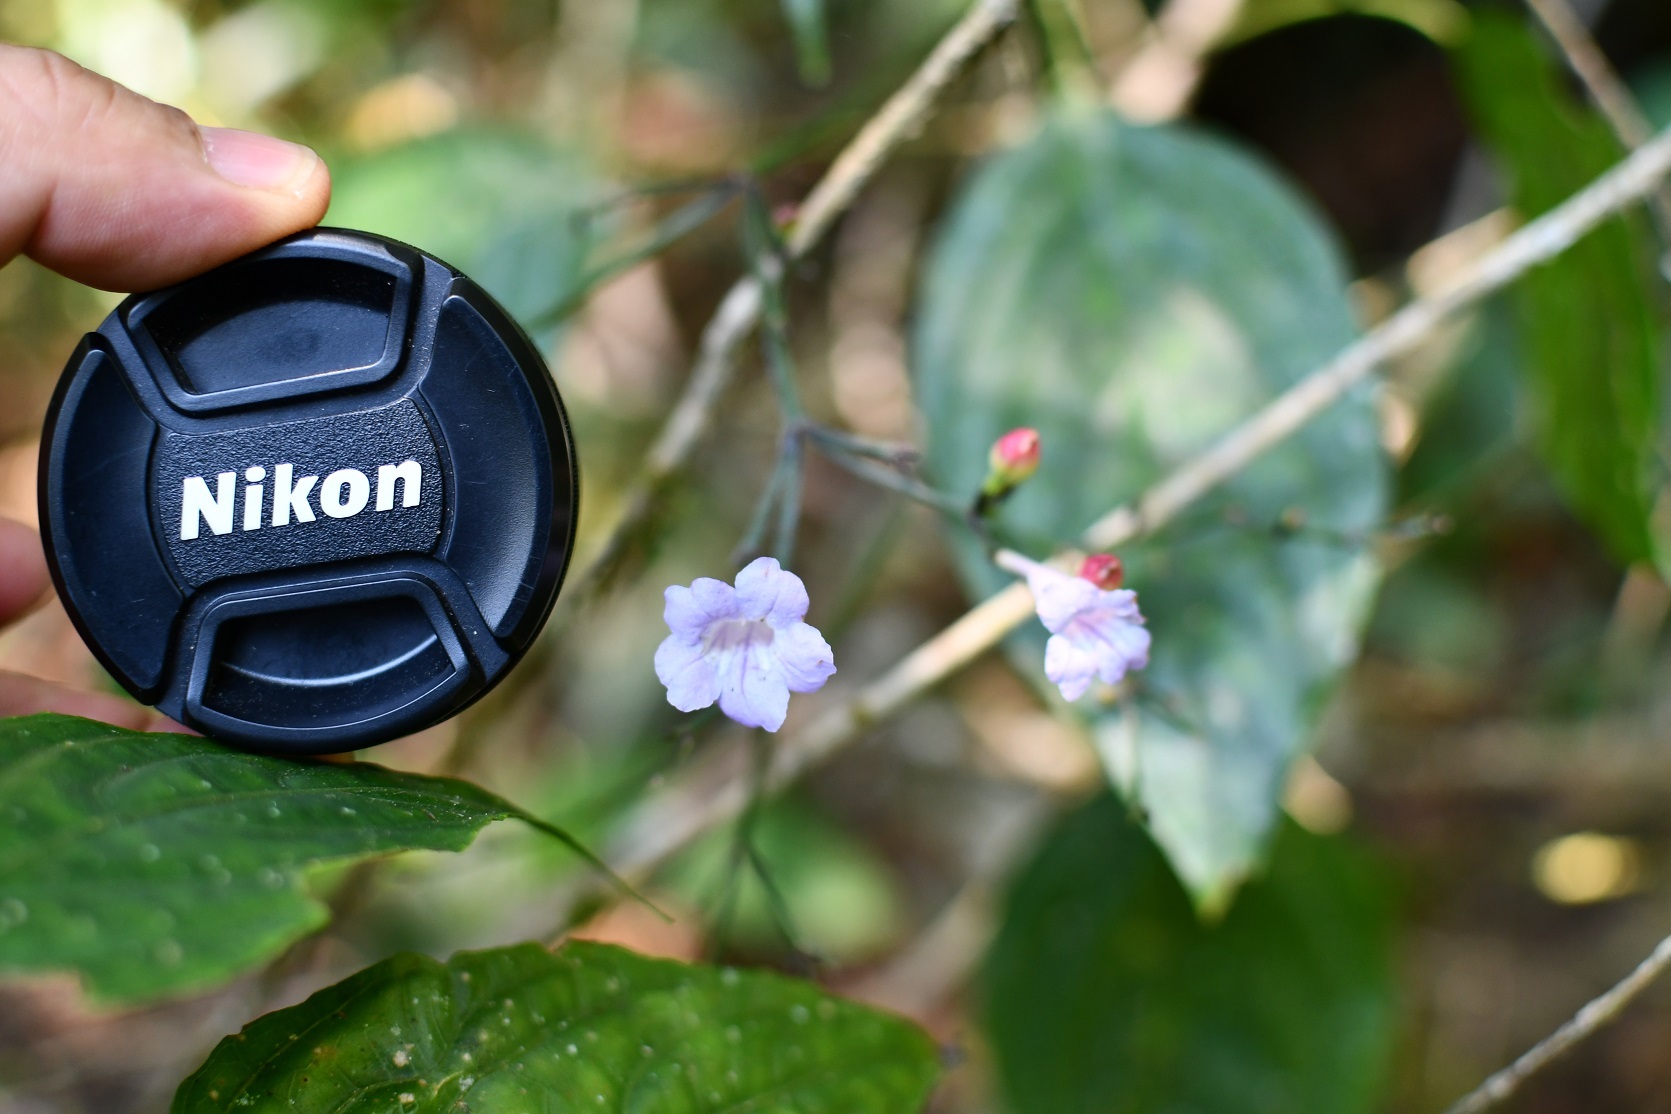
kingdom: Plantae
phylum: Tracheophyta
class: Magnoliopsida
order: Lamiales
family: Acanthaceae
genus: Ruellia
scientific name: Ruellia stemonacanthoides
